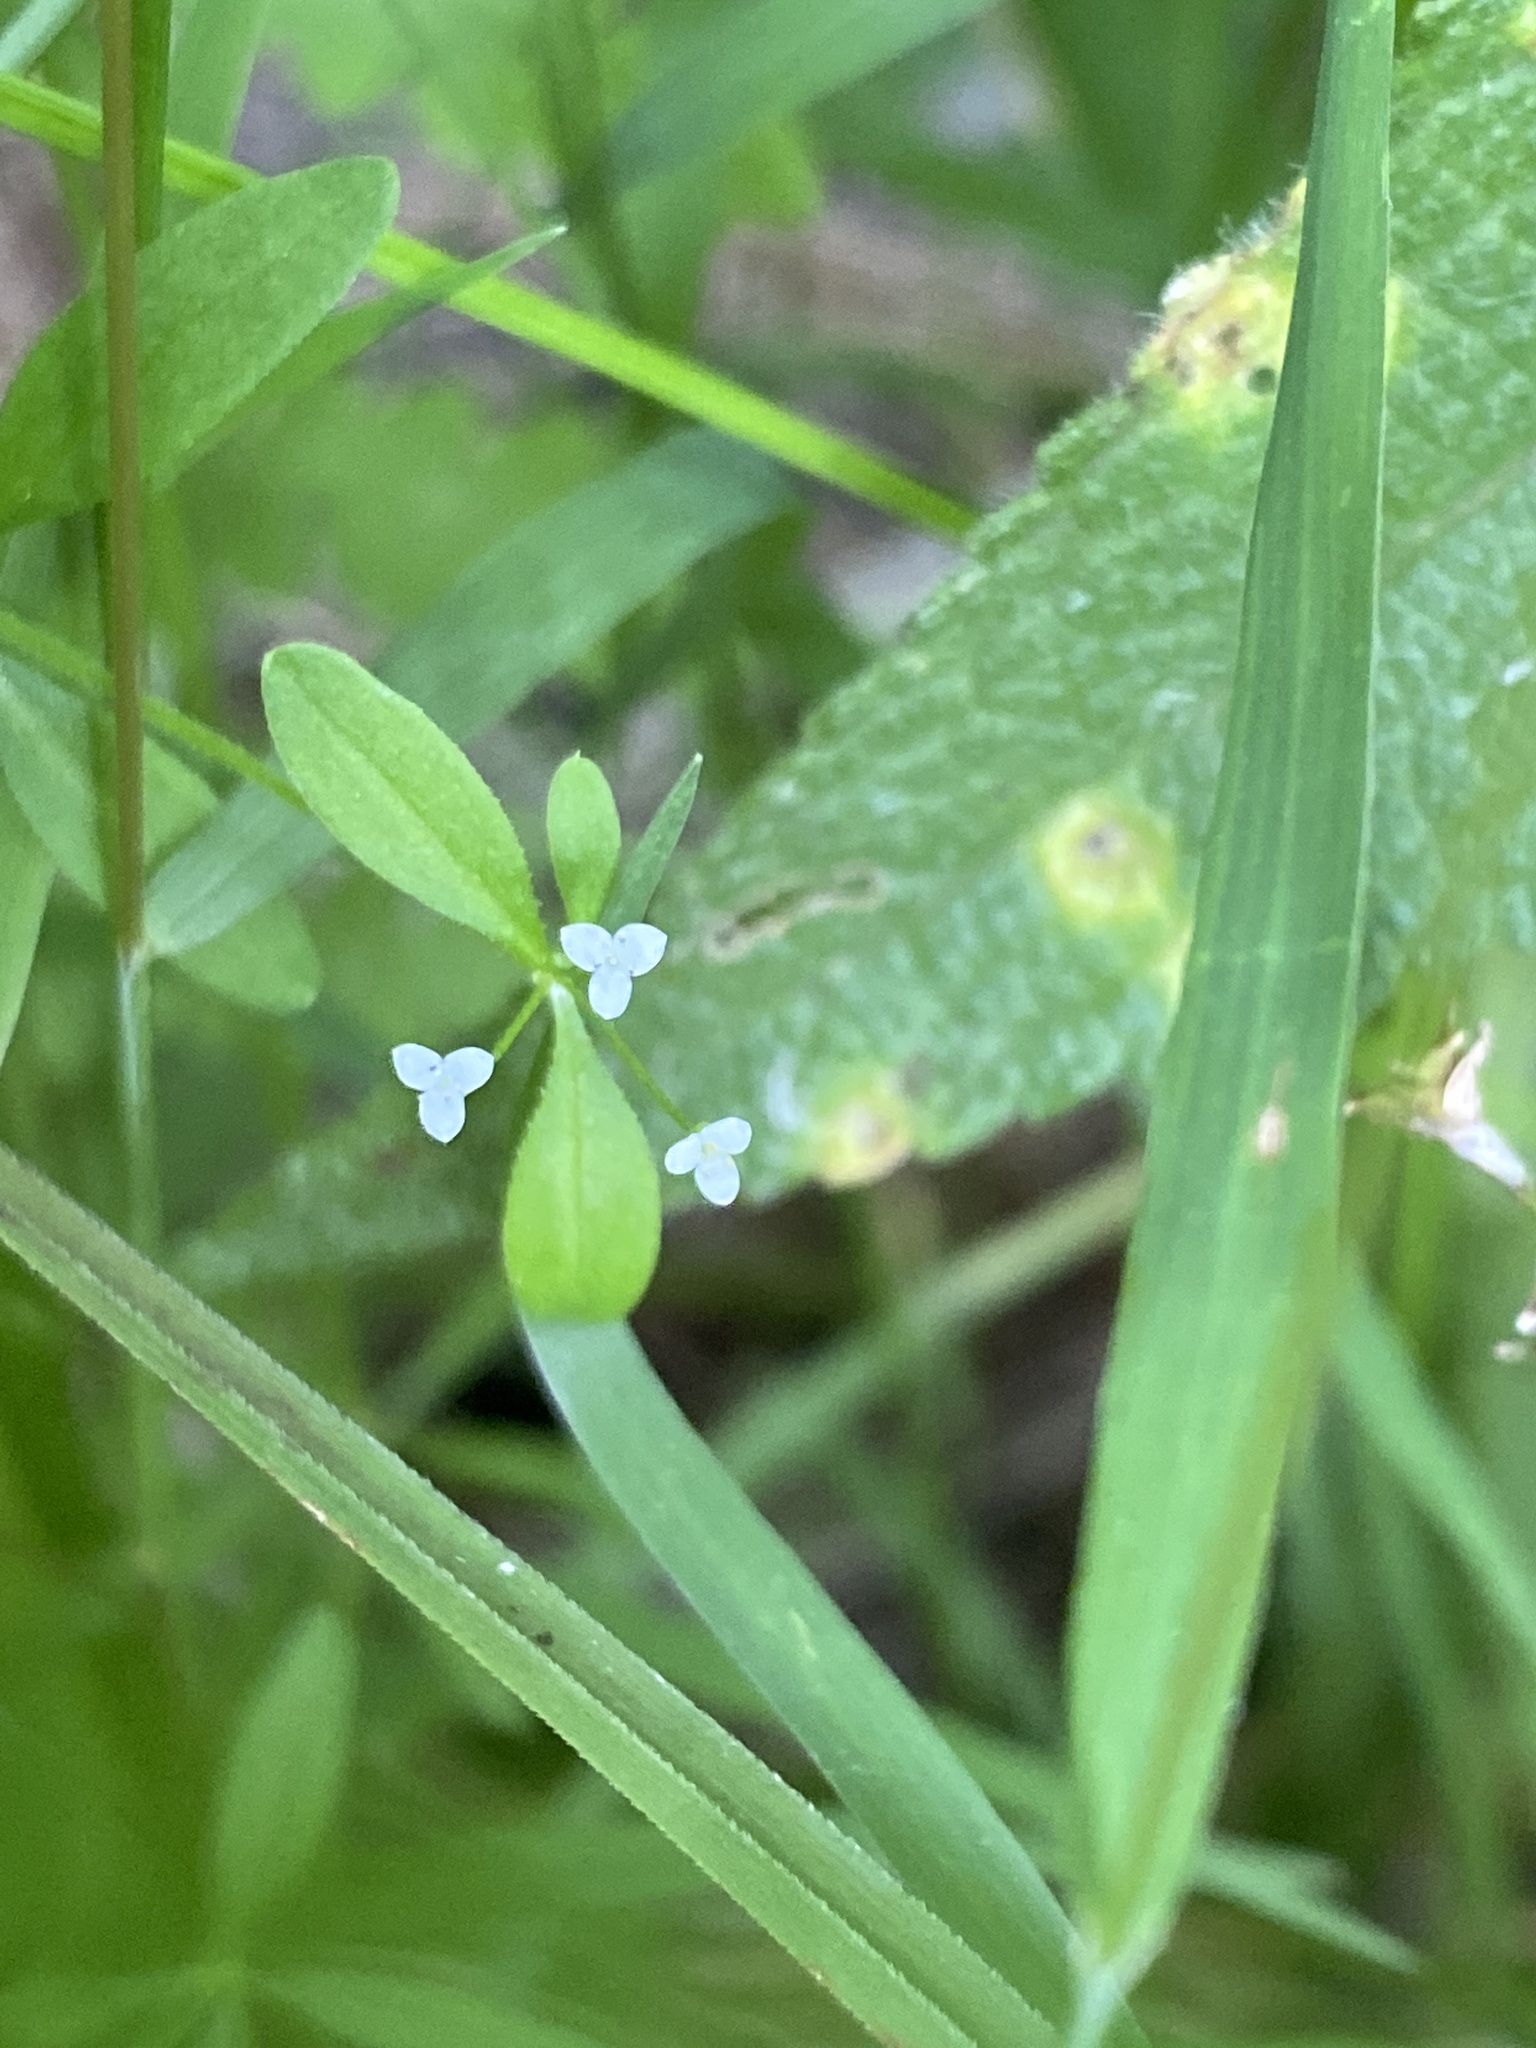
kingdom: Plantae
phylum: Tracheophyta
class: Magnoliopsida
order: Gentianales
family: Rubiaceae
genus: Galium
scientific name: Galium tinctorium
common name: Bedstraw
